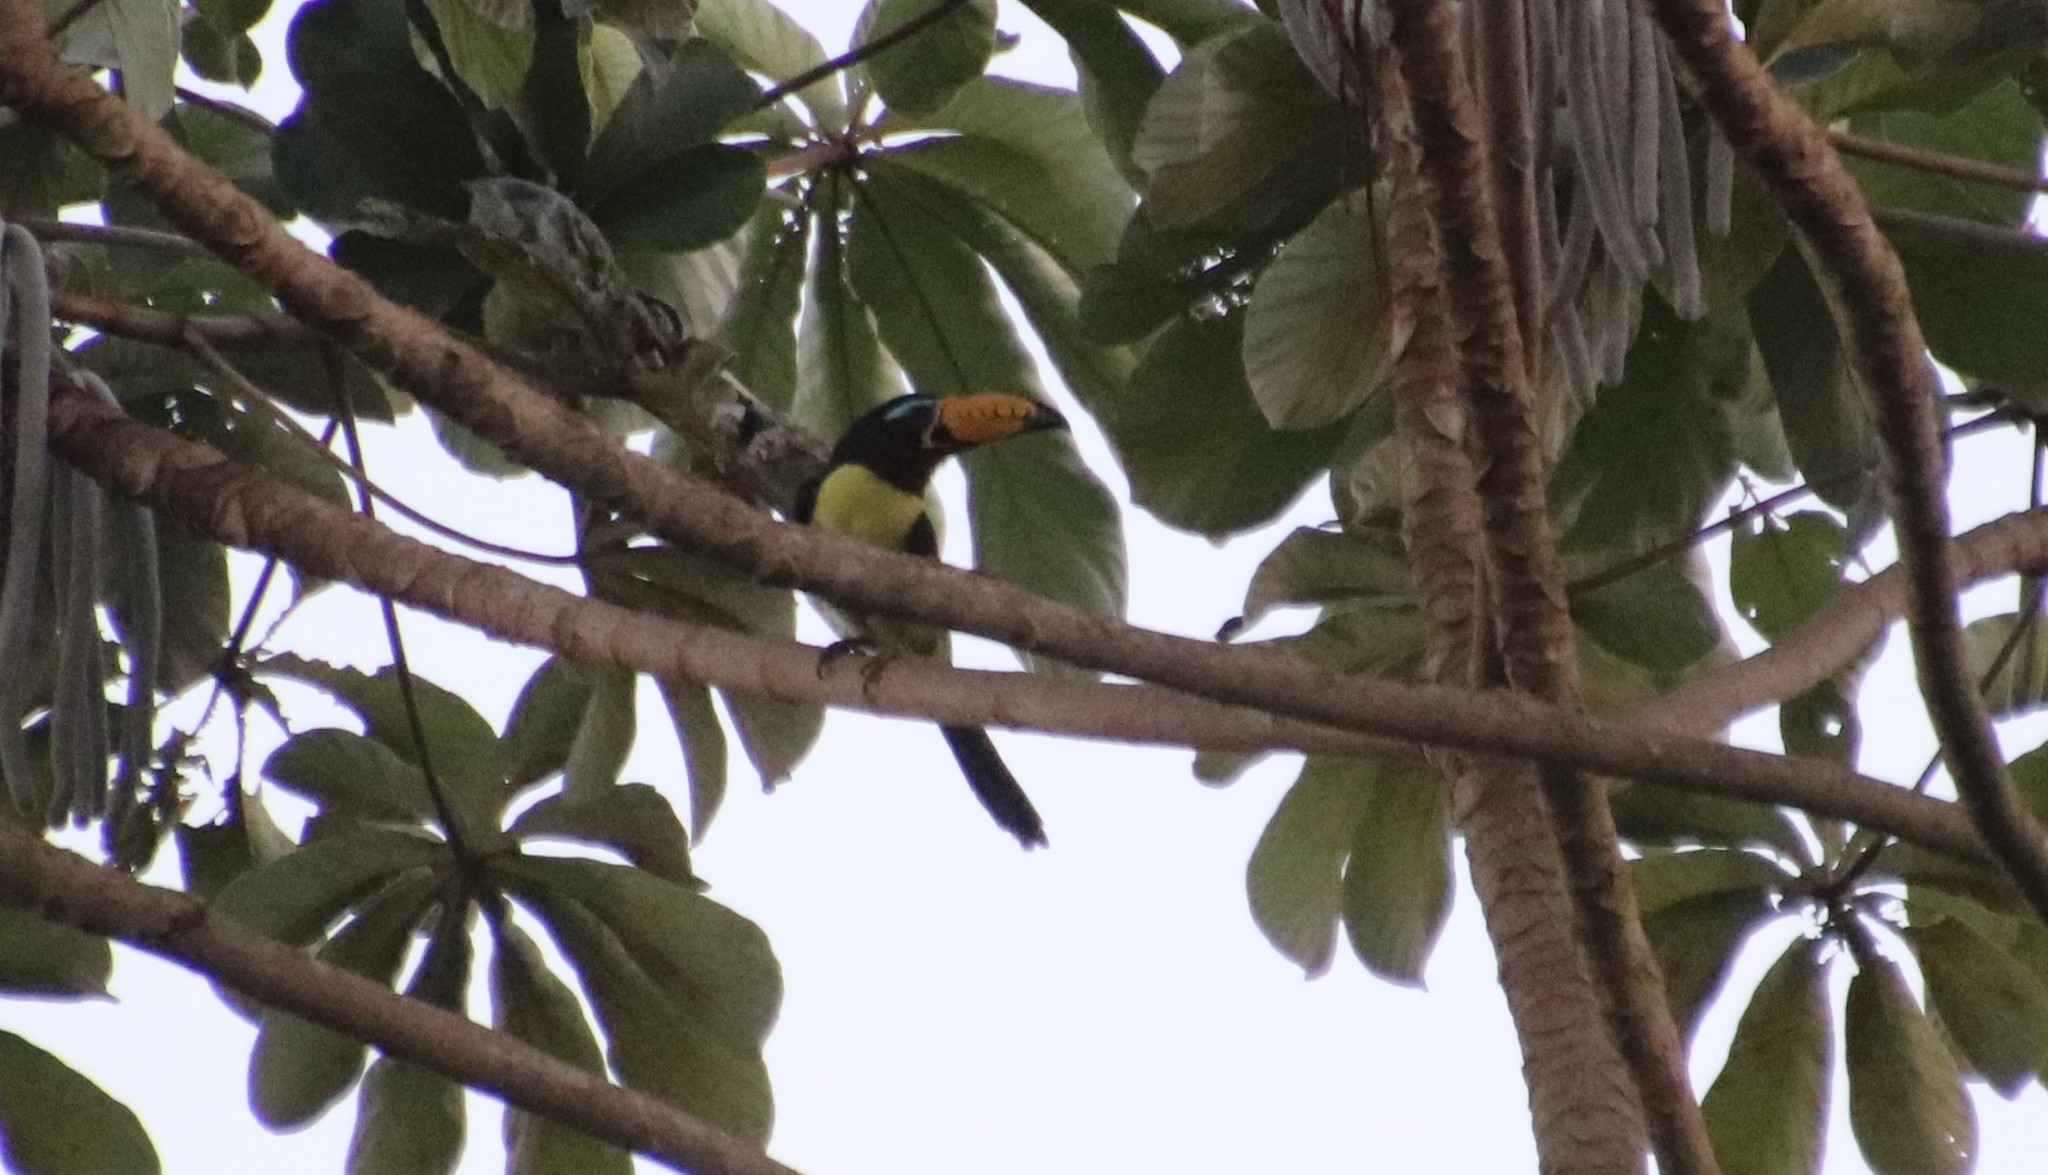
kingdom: Animalia
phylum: Chordata
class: Aves
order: Piciformes
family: Ramphastidae
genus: Pteroglossus
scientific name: Pteroglossus inscriptus
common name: Lettered aracari
